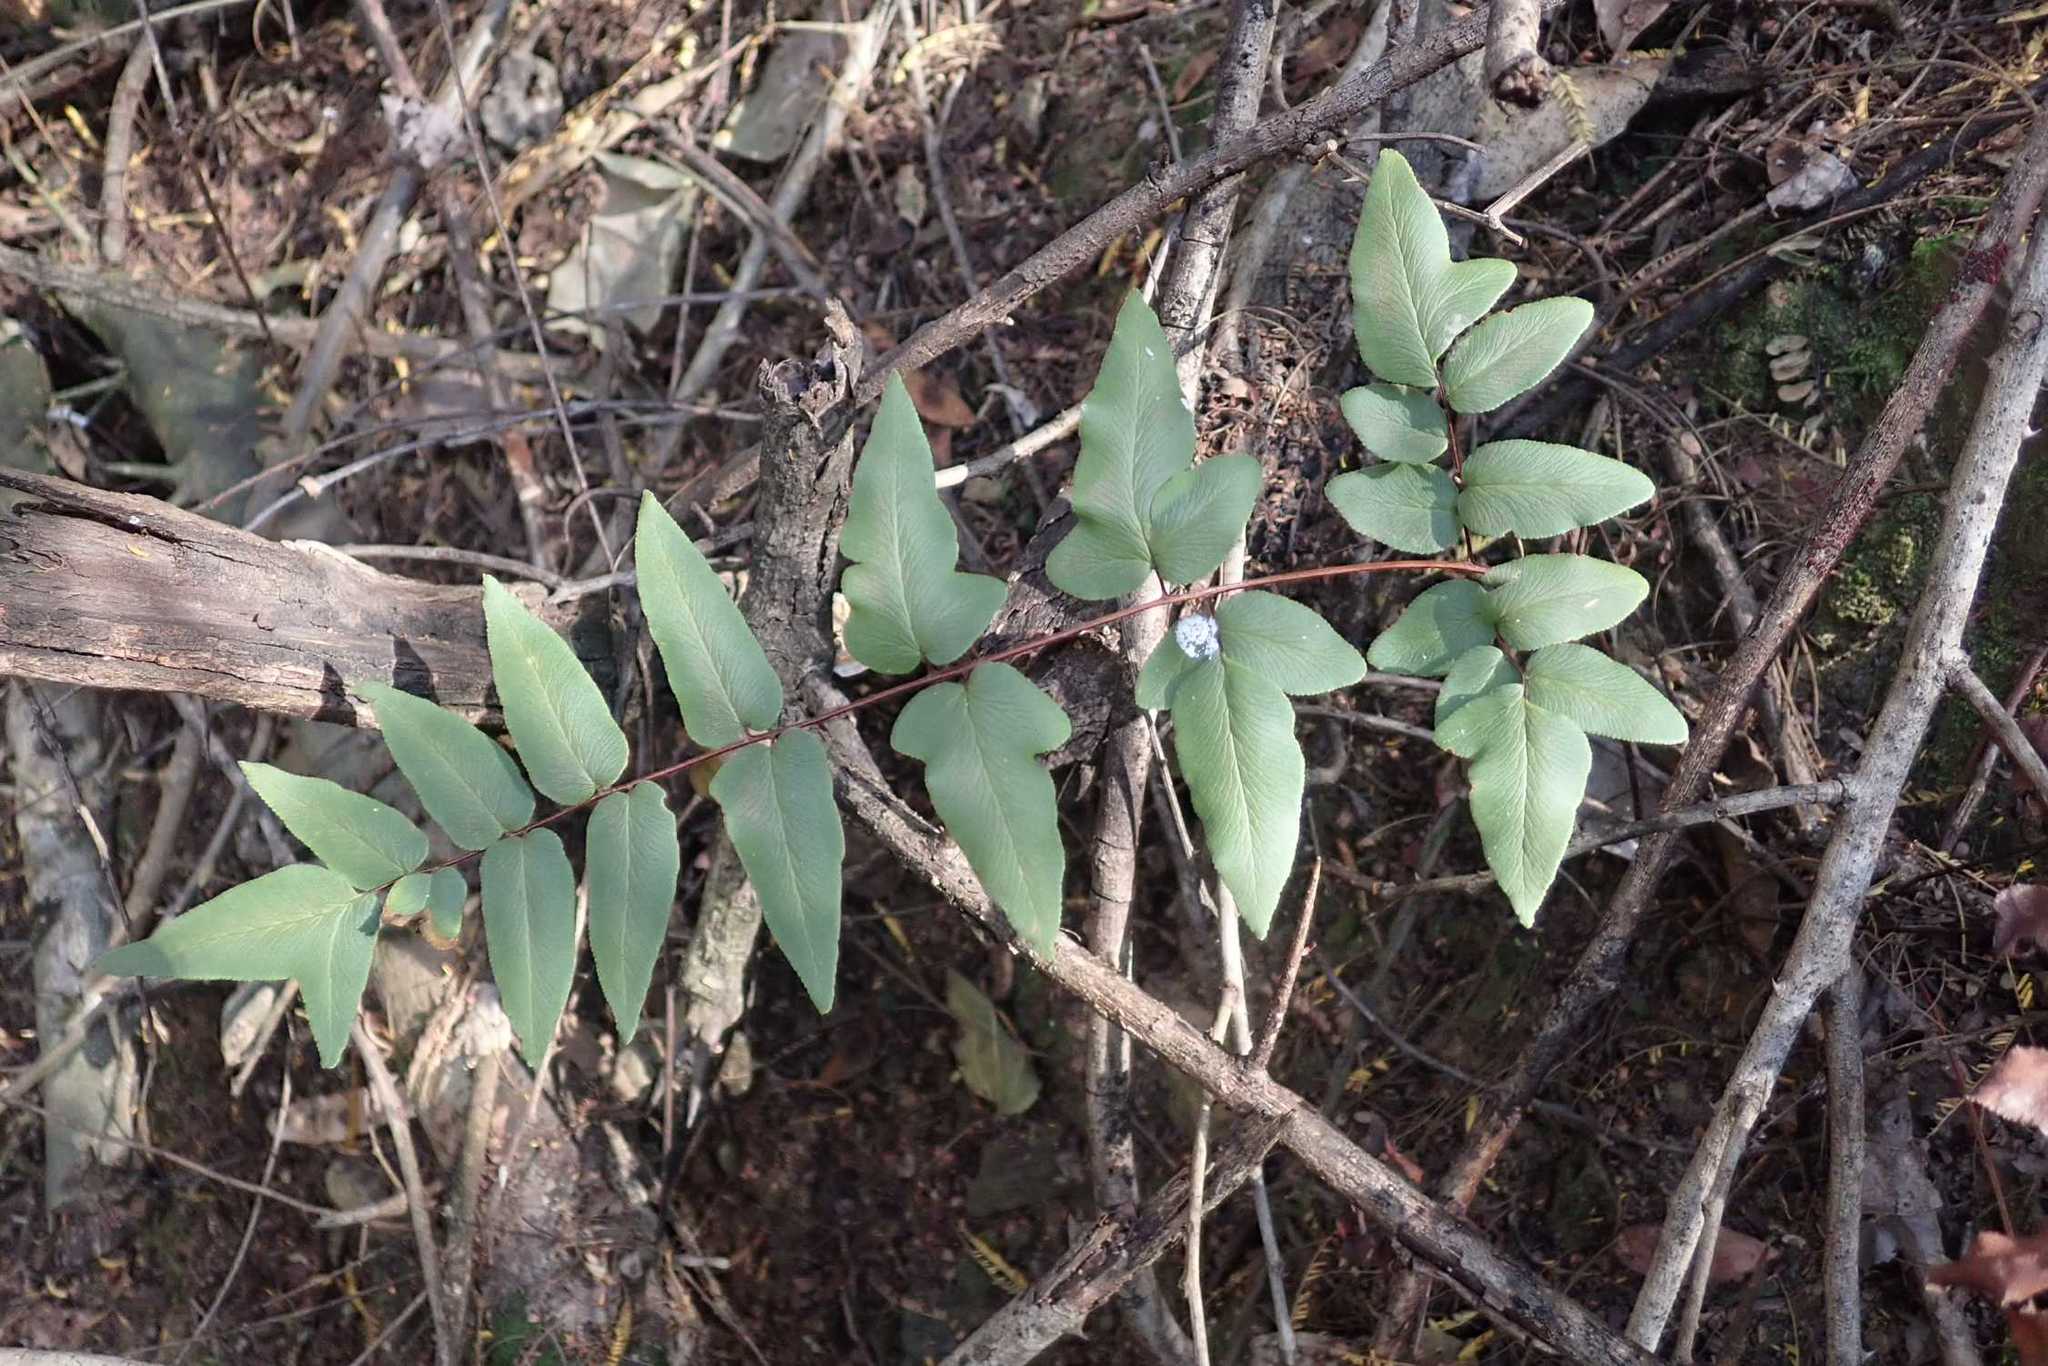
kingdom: Plantae
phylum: Tracheophyta
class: Polypodiopsida
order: Polypodiales
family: Pteridaceae
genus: Cheilanthes
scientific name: Cheilanthes viridis
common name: Green cliffbrake
